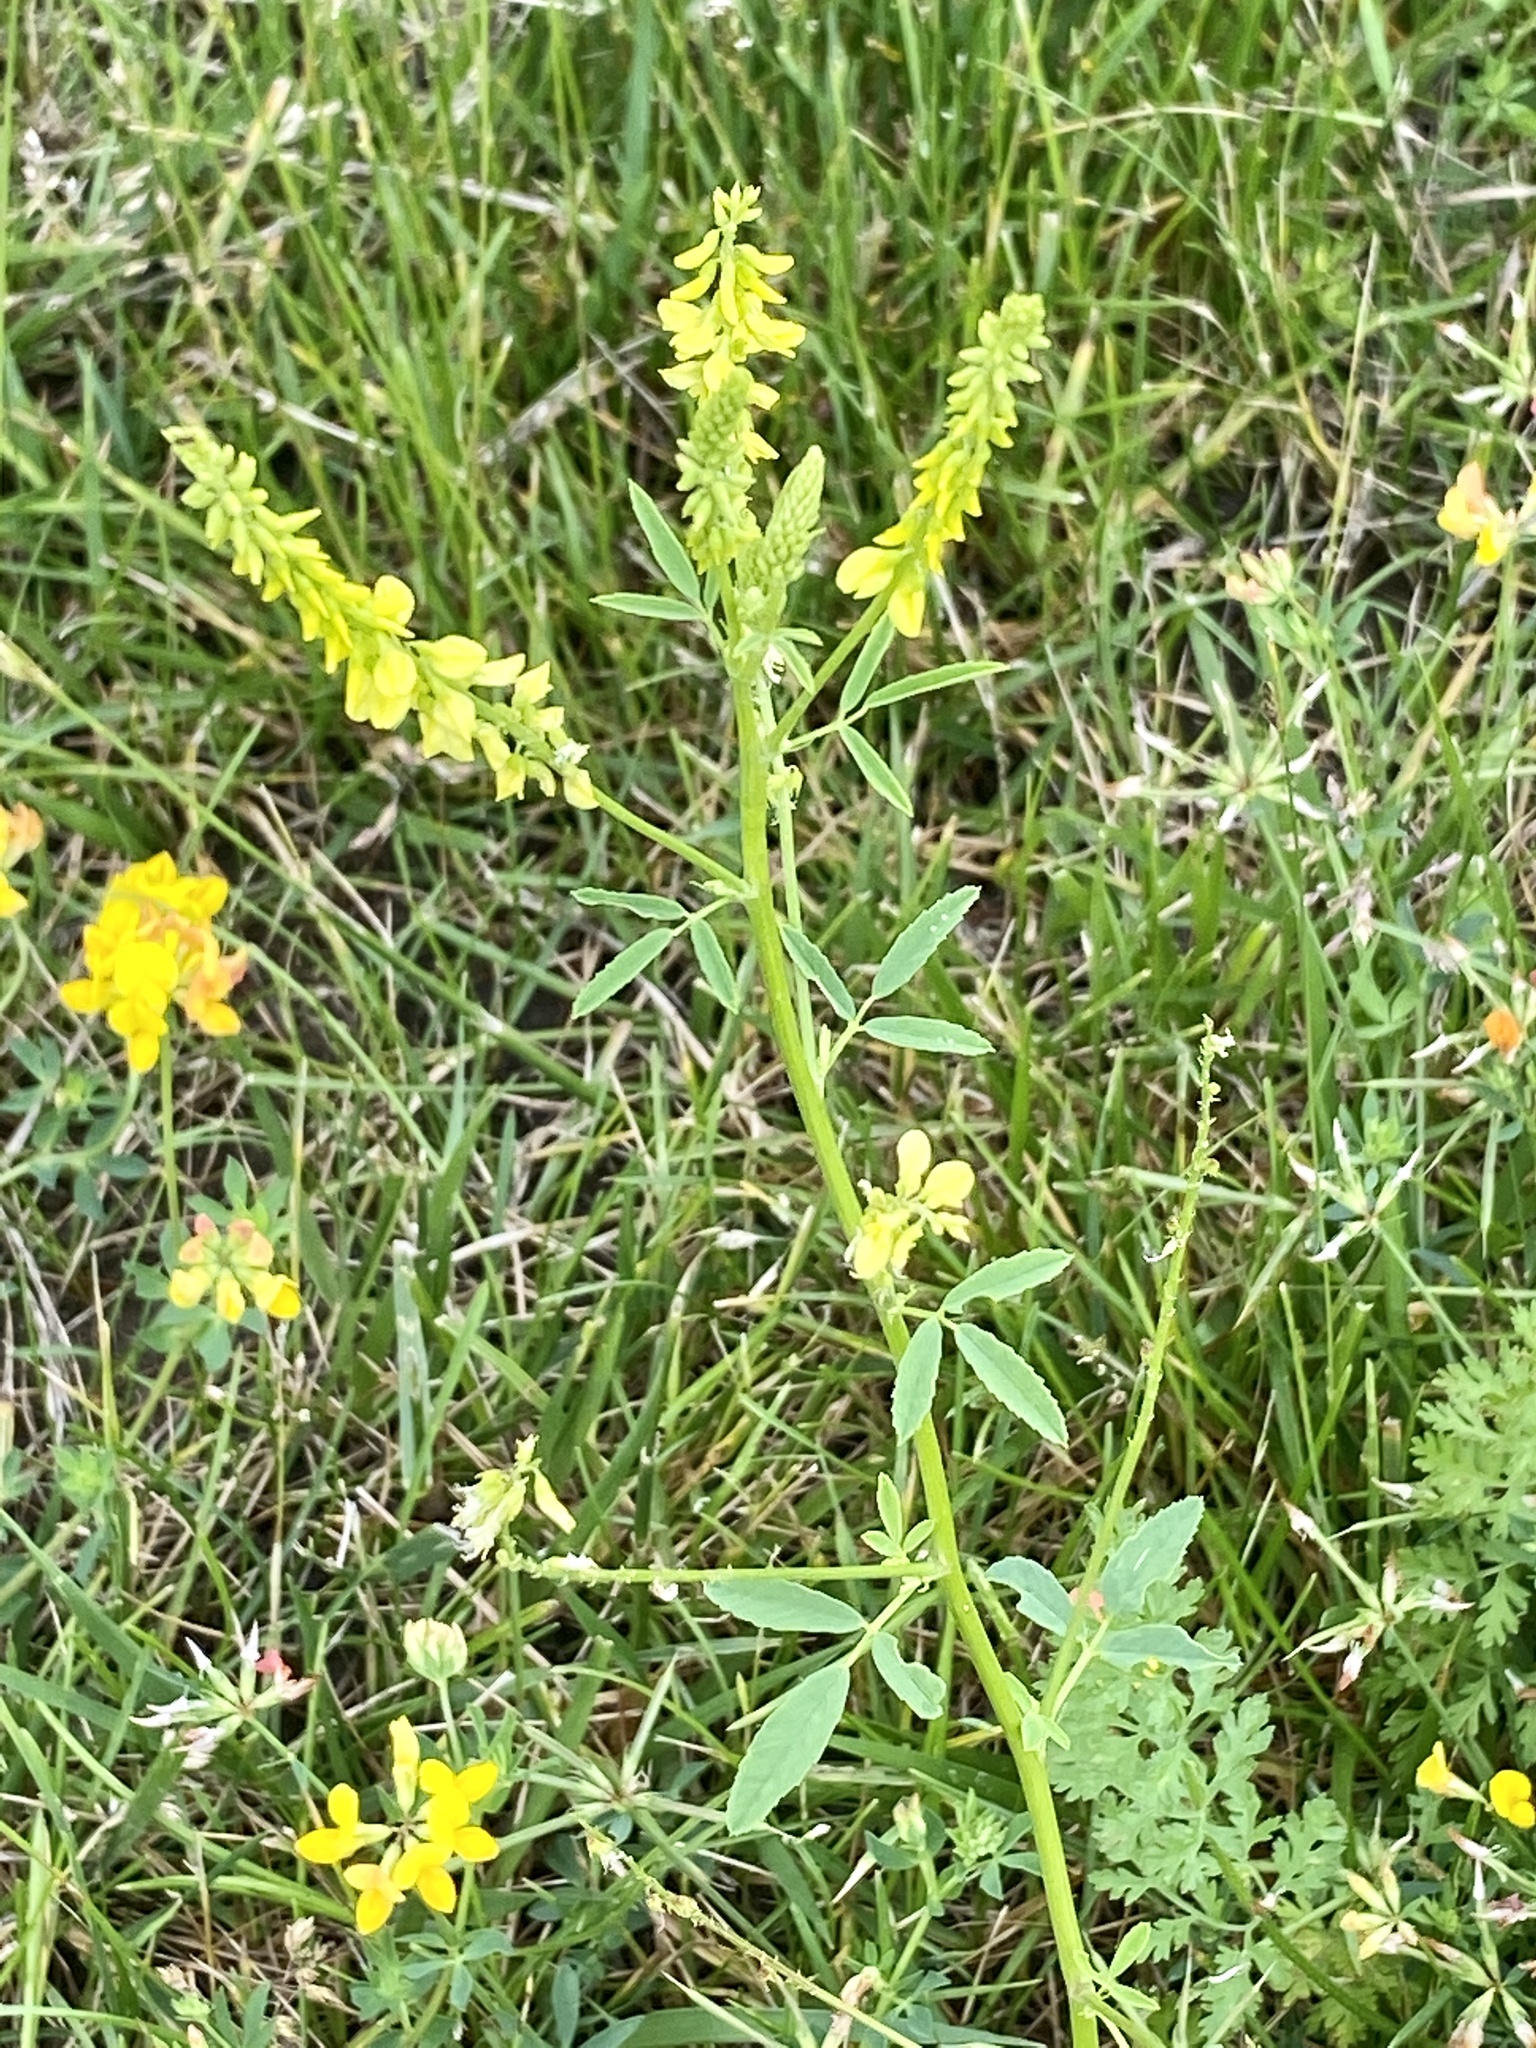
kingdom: Plantae
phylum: Tracheophyta
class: Magnoliopsida
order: Fabales
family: Fabaceae
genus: Melilotus
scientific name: Melilotus officinalis
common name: Sweetclover
